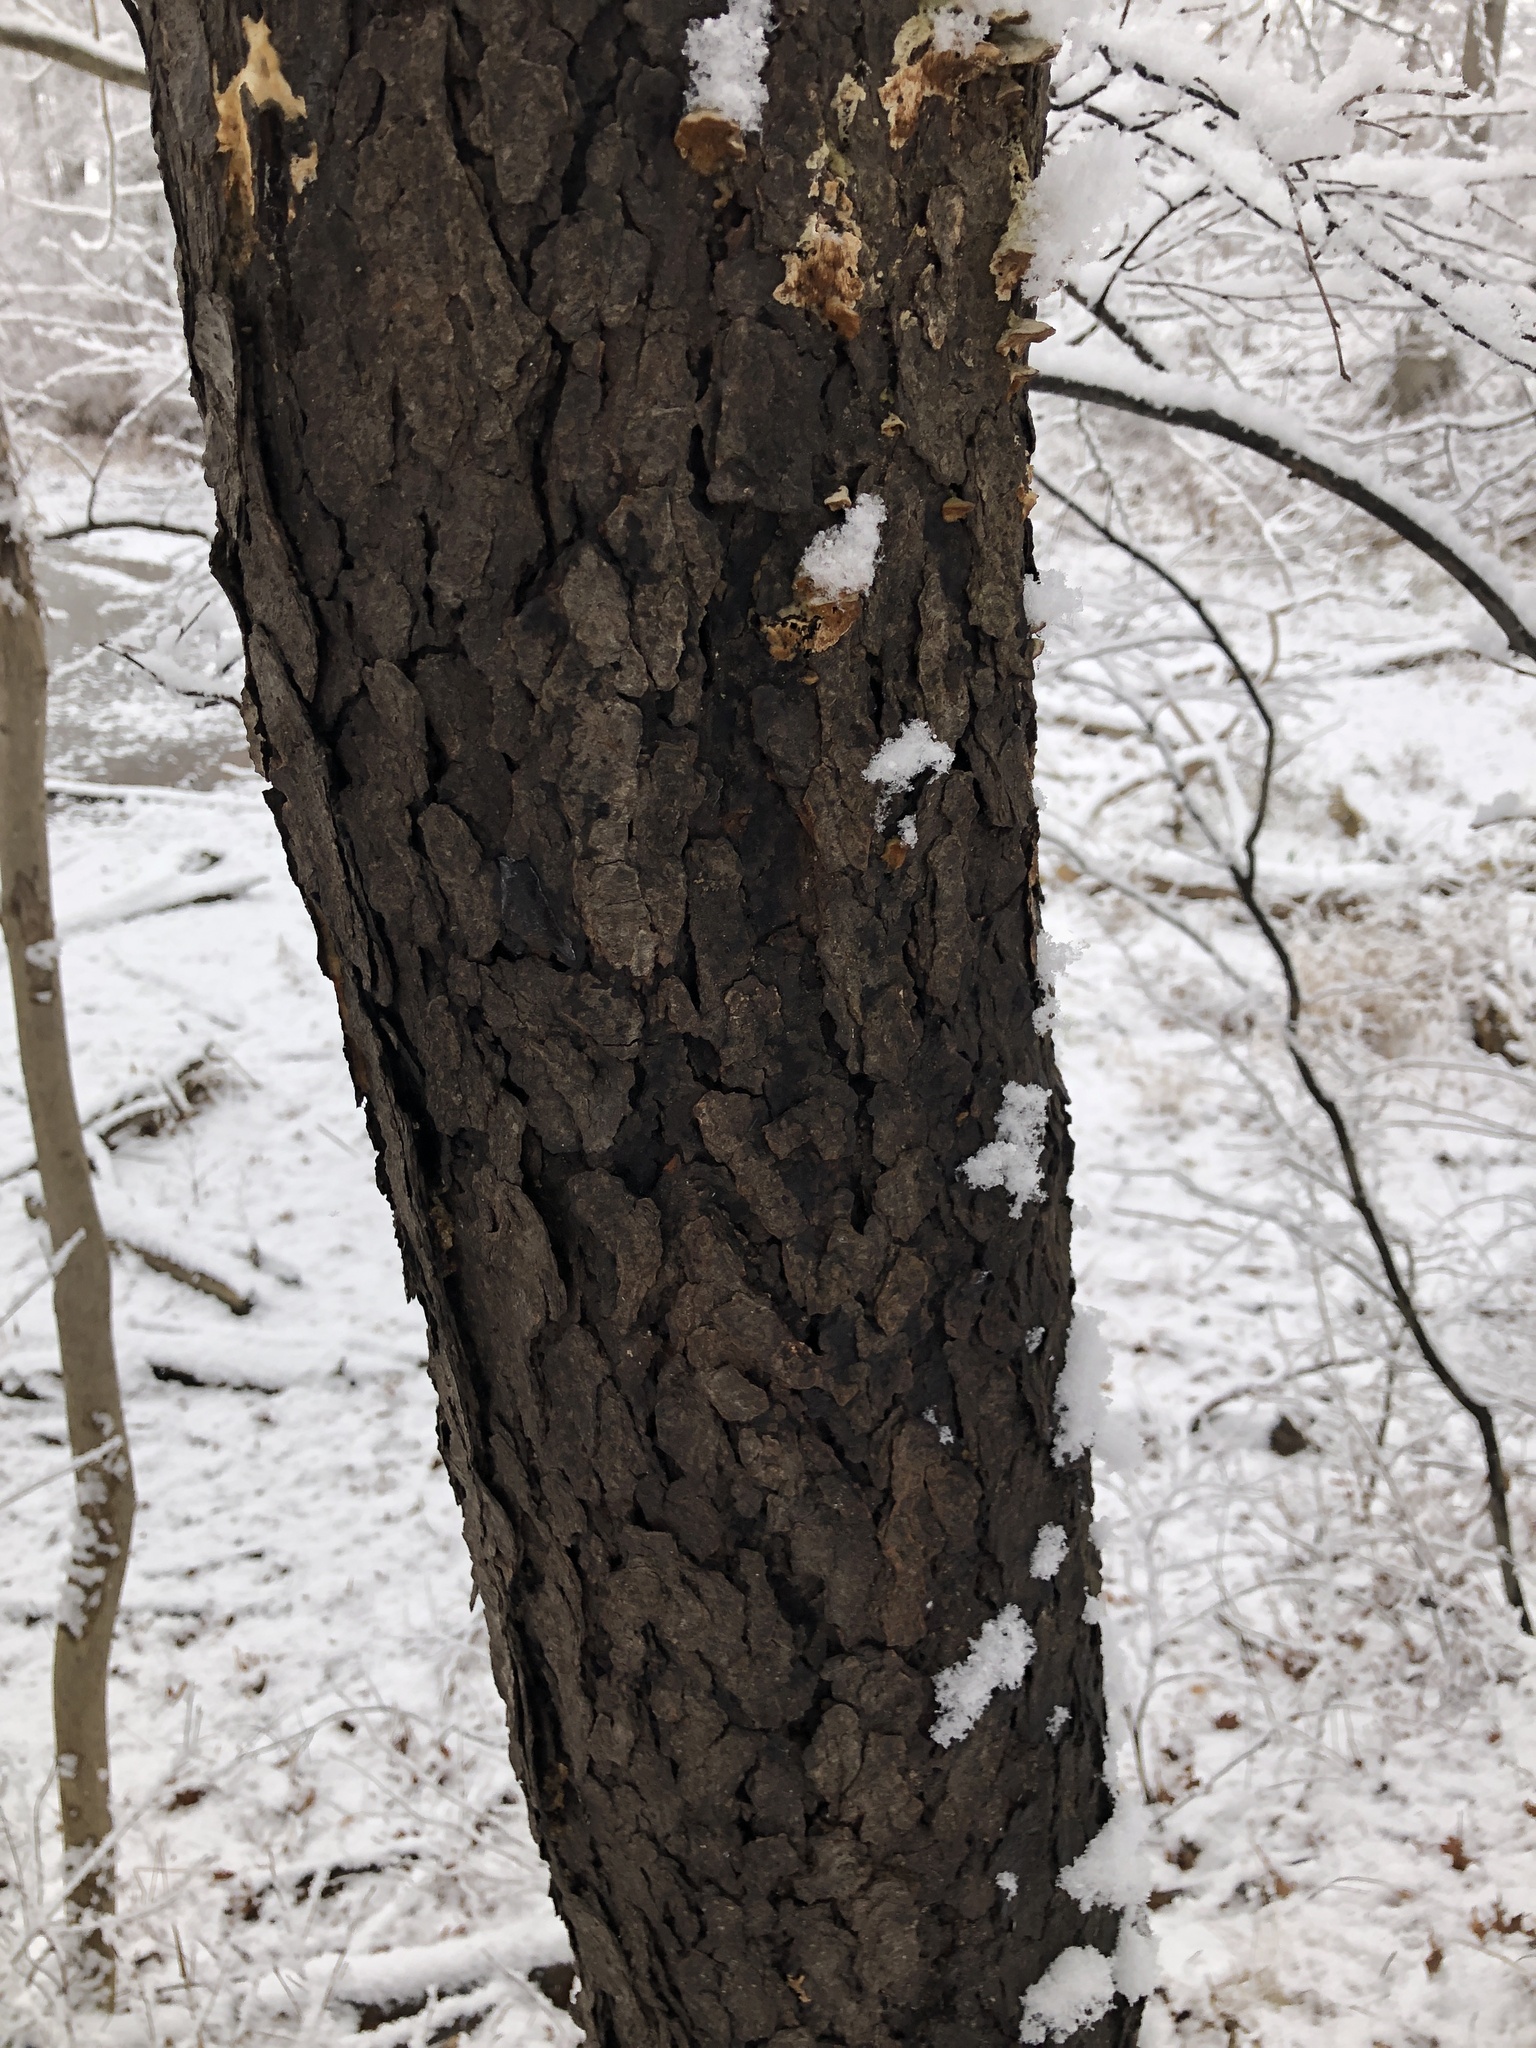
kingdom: Plantae
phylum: Tracheophyta
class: Magnoliopsida
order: Rosales
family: Rosaceae
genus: Prunus
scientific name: Prunus serotina
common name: Black cherry
